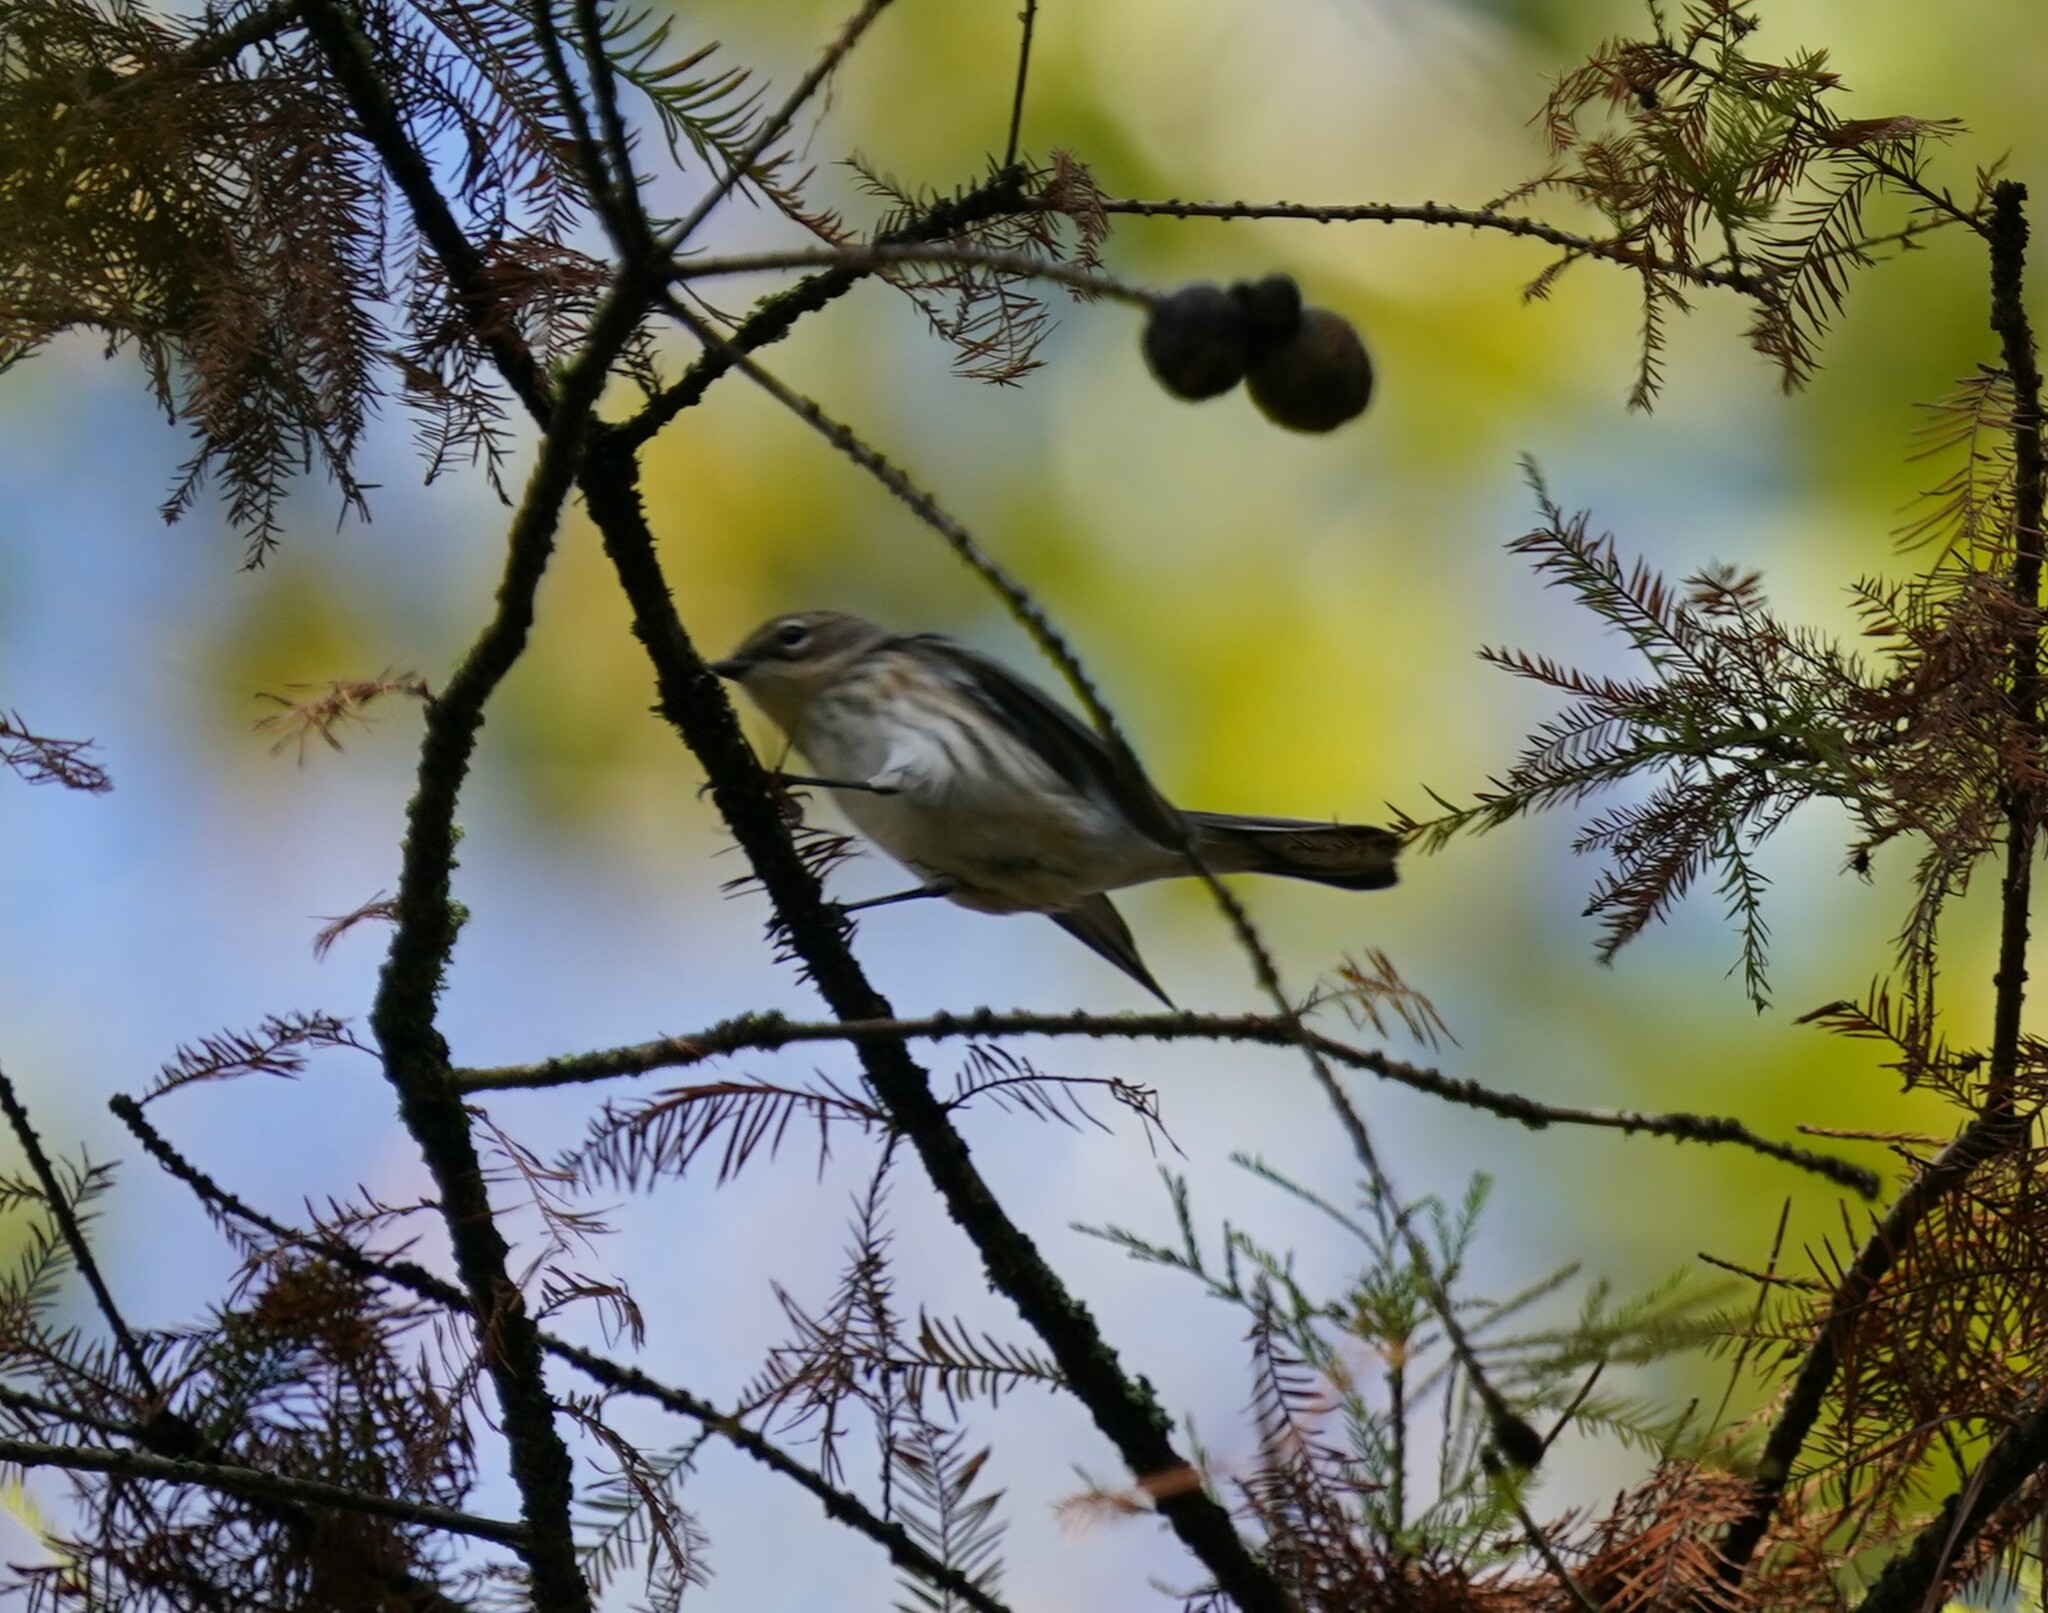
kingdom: Animalia
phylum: Chordata
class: Aves
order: Passeriformes
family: Parulidae
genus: Setophaga
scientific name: Setophaga coronata
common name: Myrtle warbler
